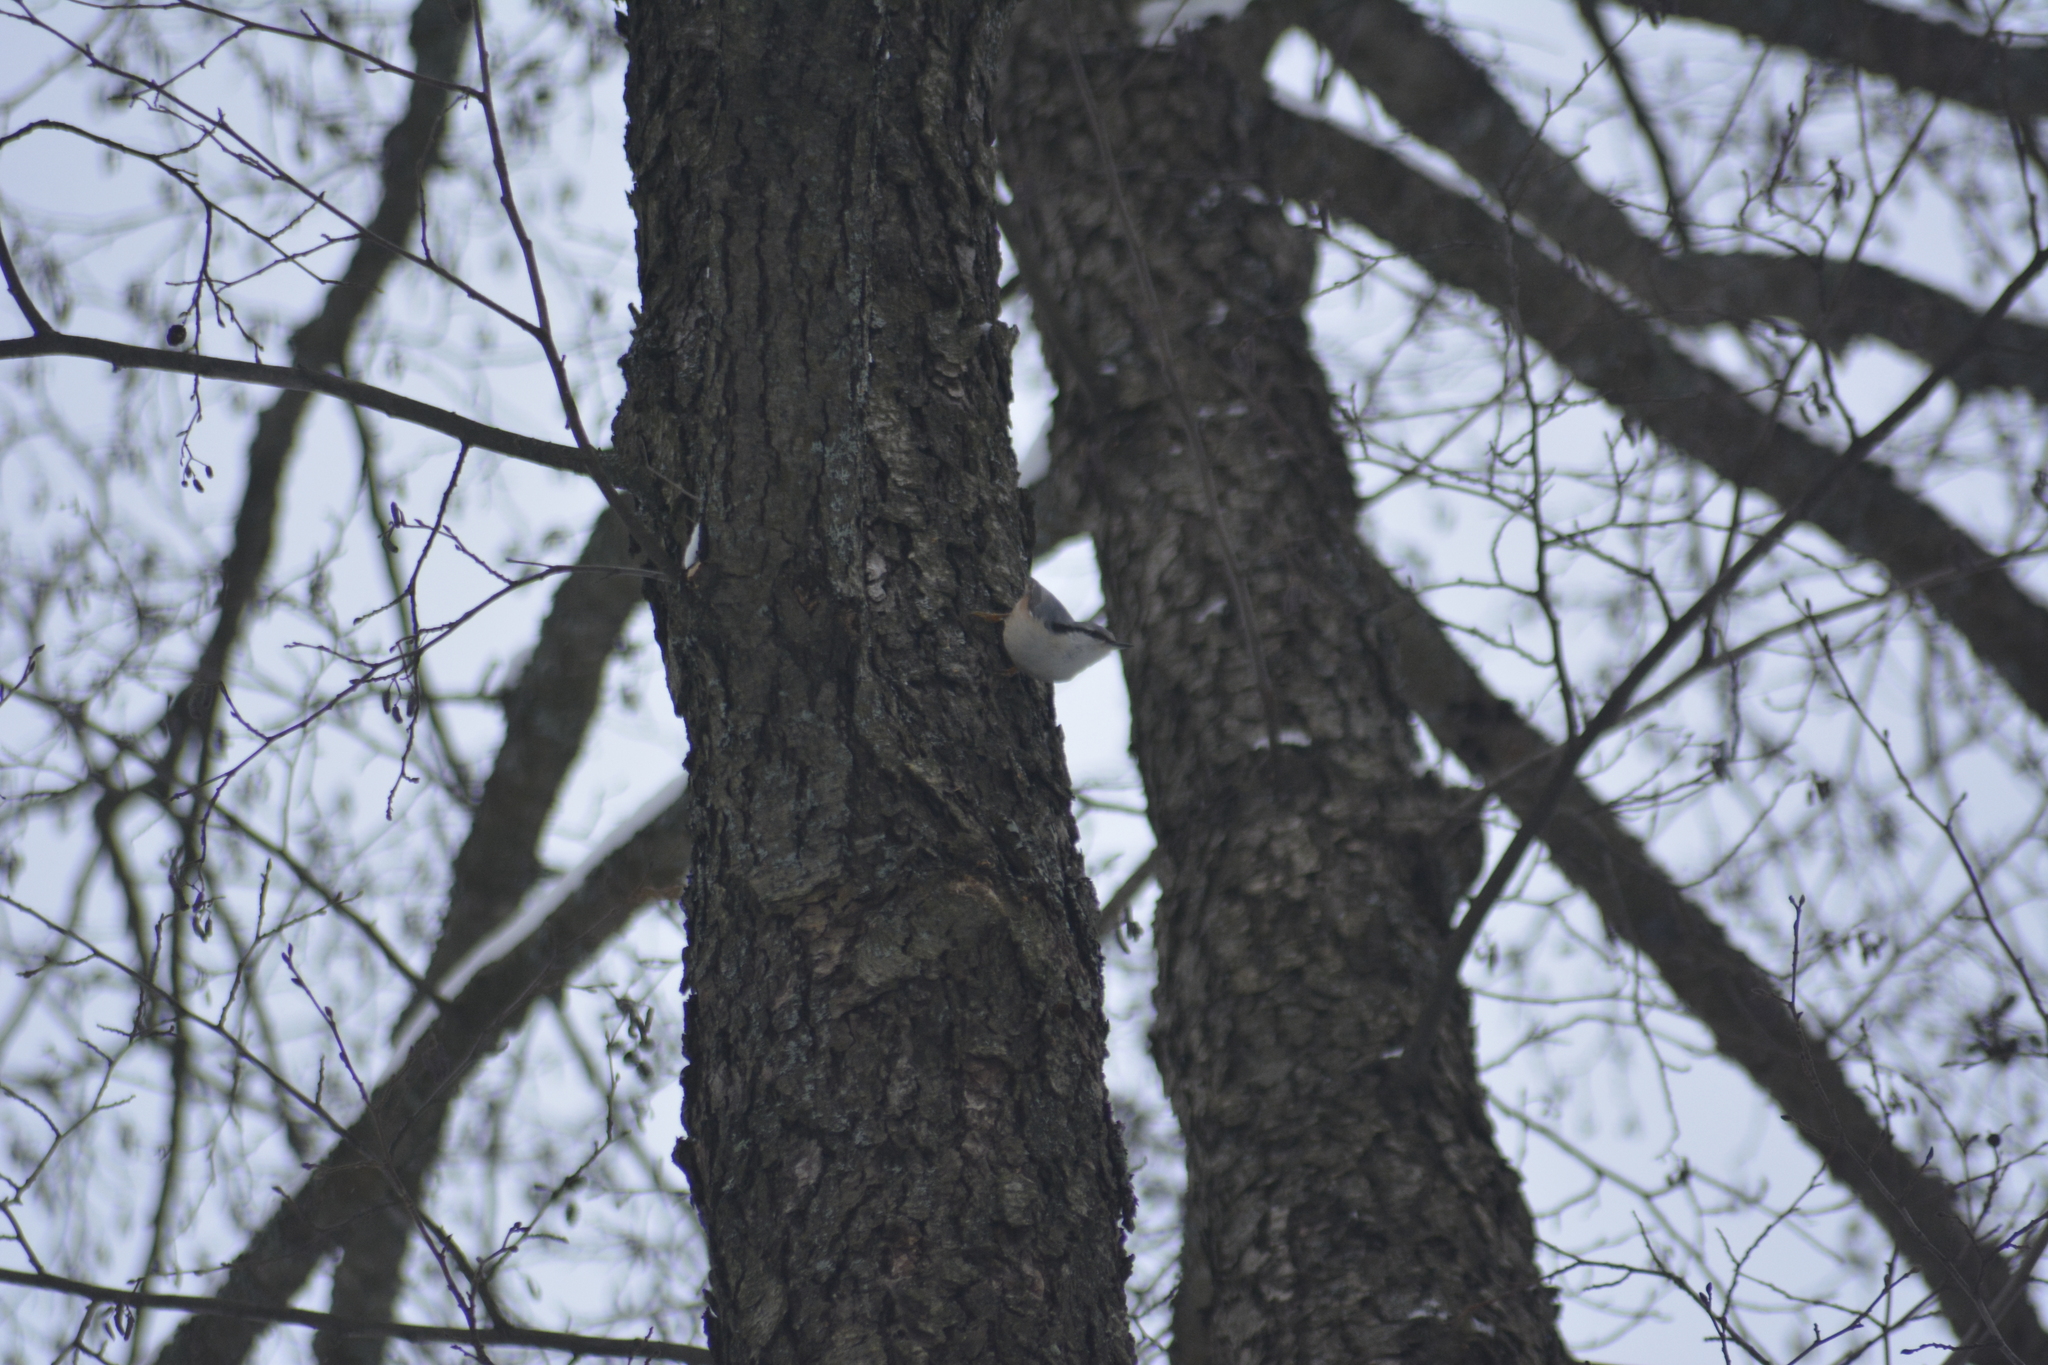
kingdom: Animalia
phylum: Chordata
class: Aves
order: Passeriformes
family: Sittidae
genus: Sitta
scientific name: Sitta europaea
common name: Eurasian nuthatch
